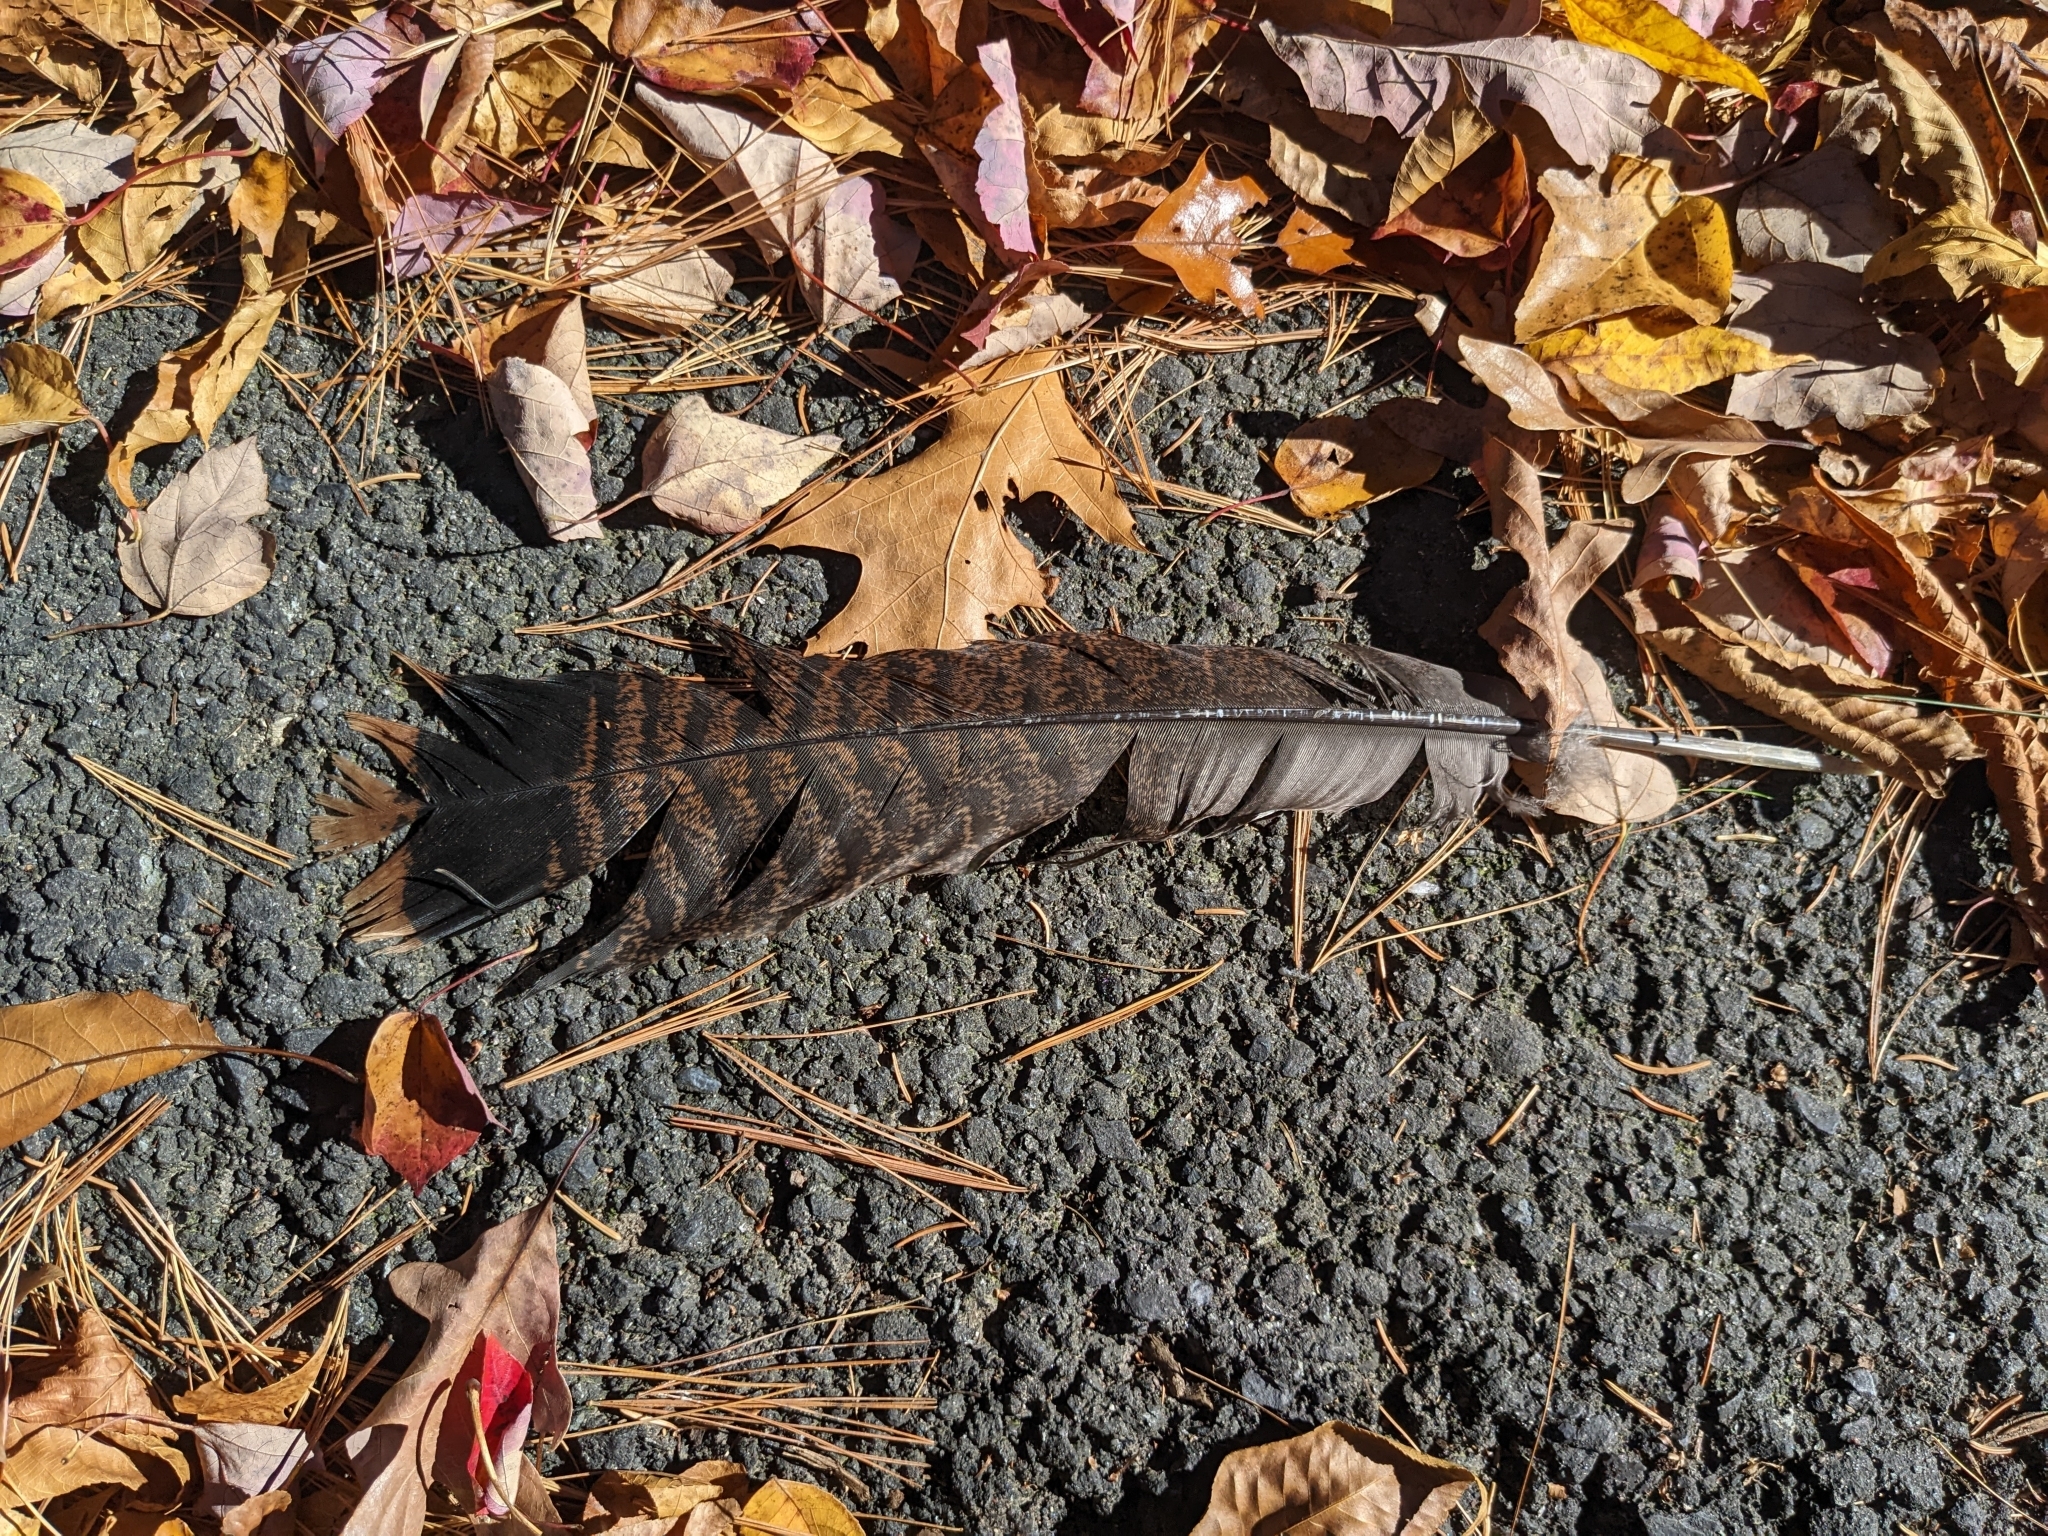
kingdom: Animalia
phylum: Chordata
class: Aves
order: Galliformes
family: Phasianidae
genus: Meleagris
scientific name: Meleagris gallopavo
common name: Wild turkey
